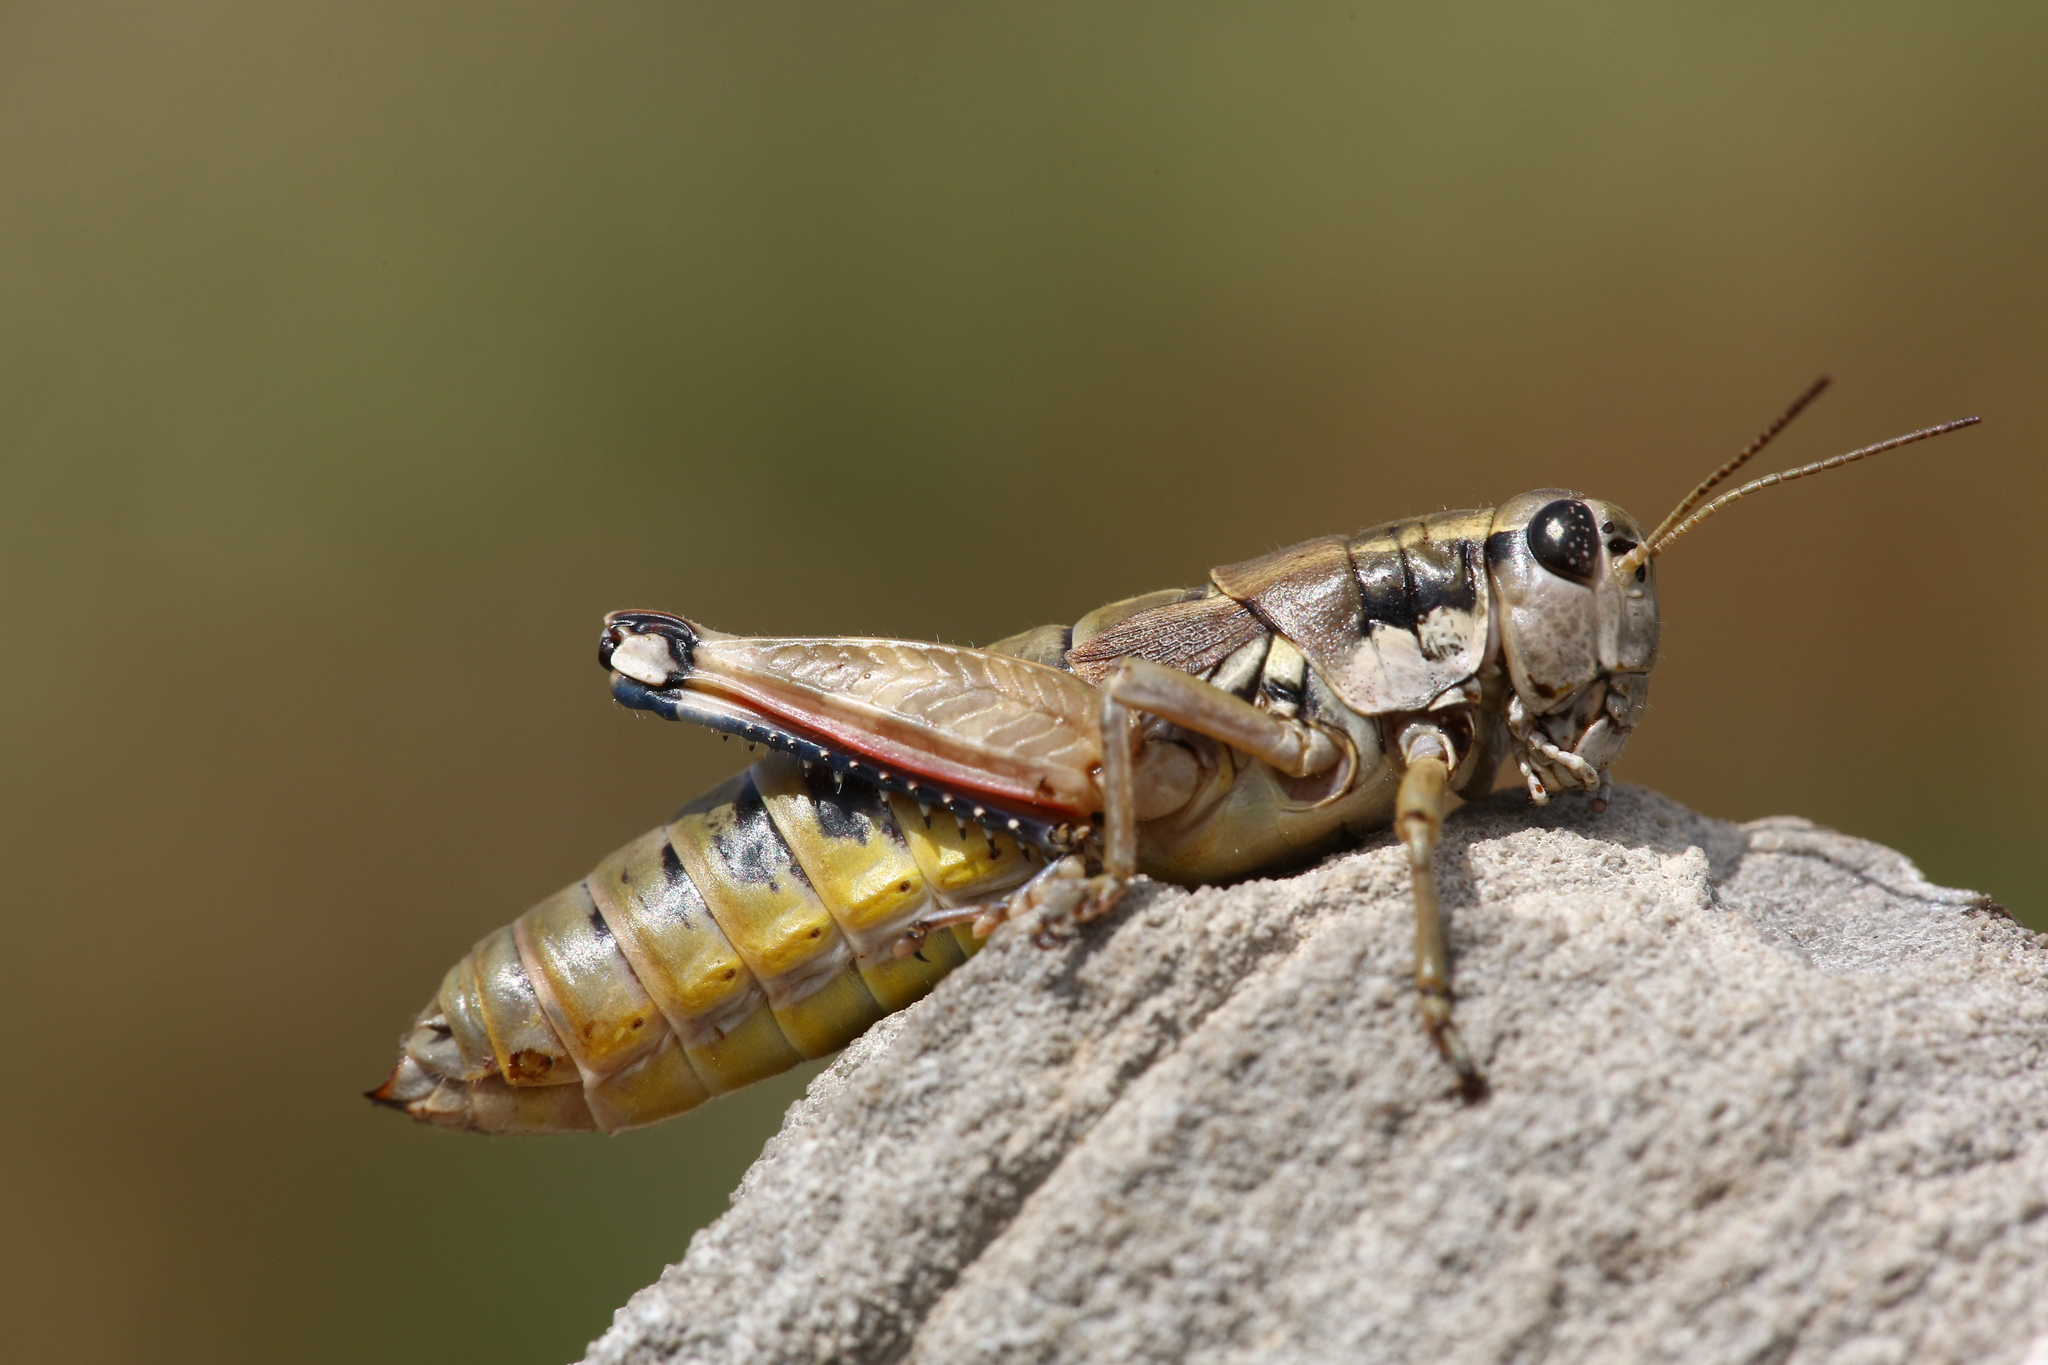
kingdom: Animalia
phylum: Arthropoda
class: Insecta
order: Orthoptera
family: Acrididae
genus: Podisma
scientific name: Podisma pedestris
